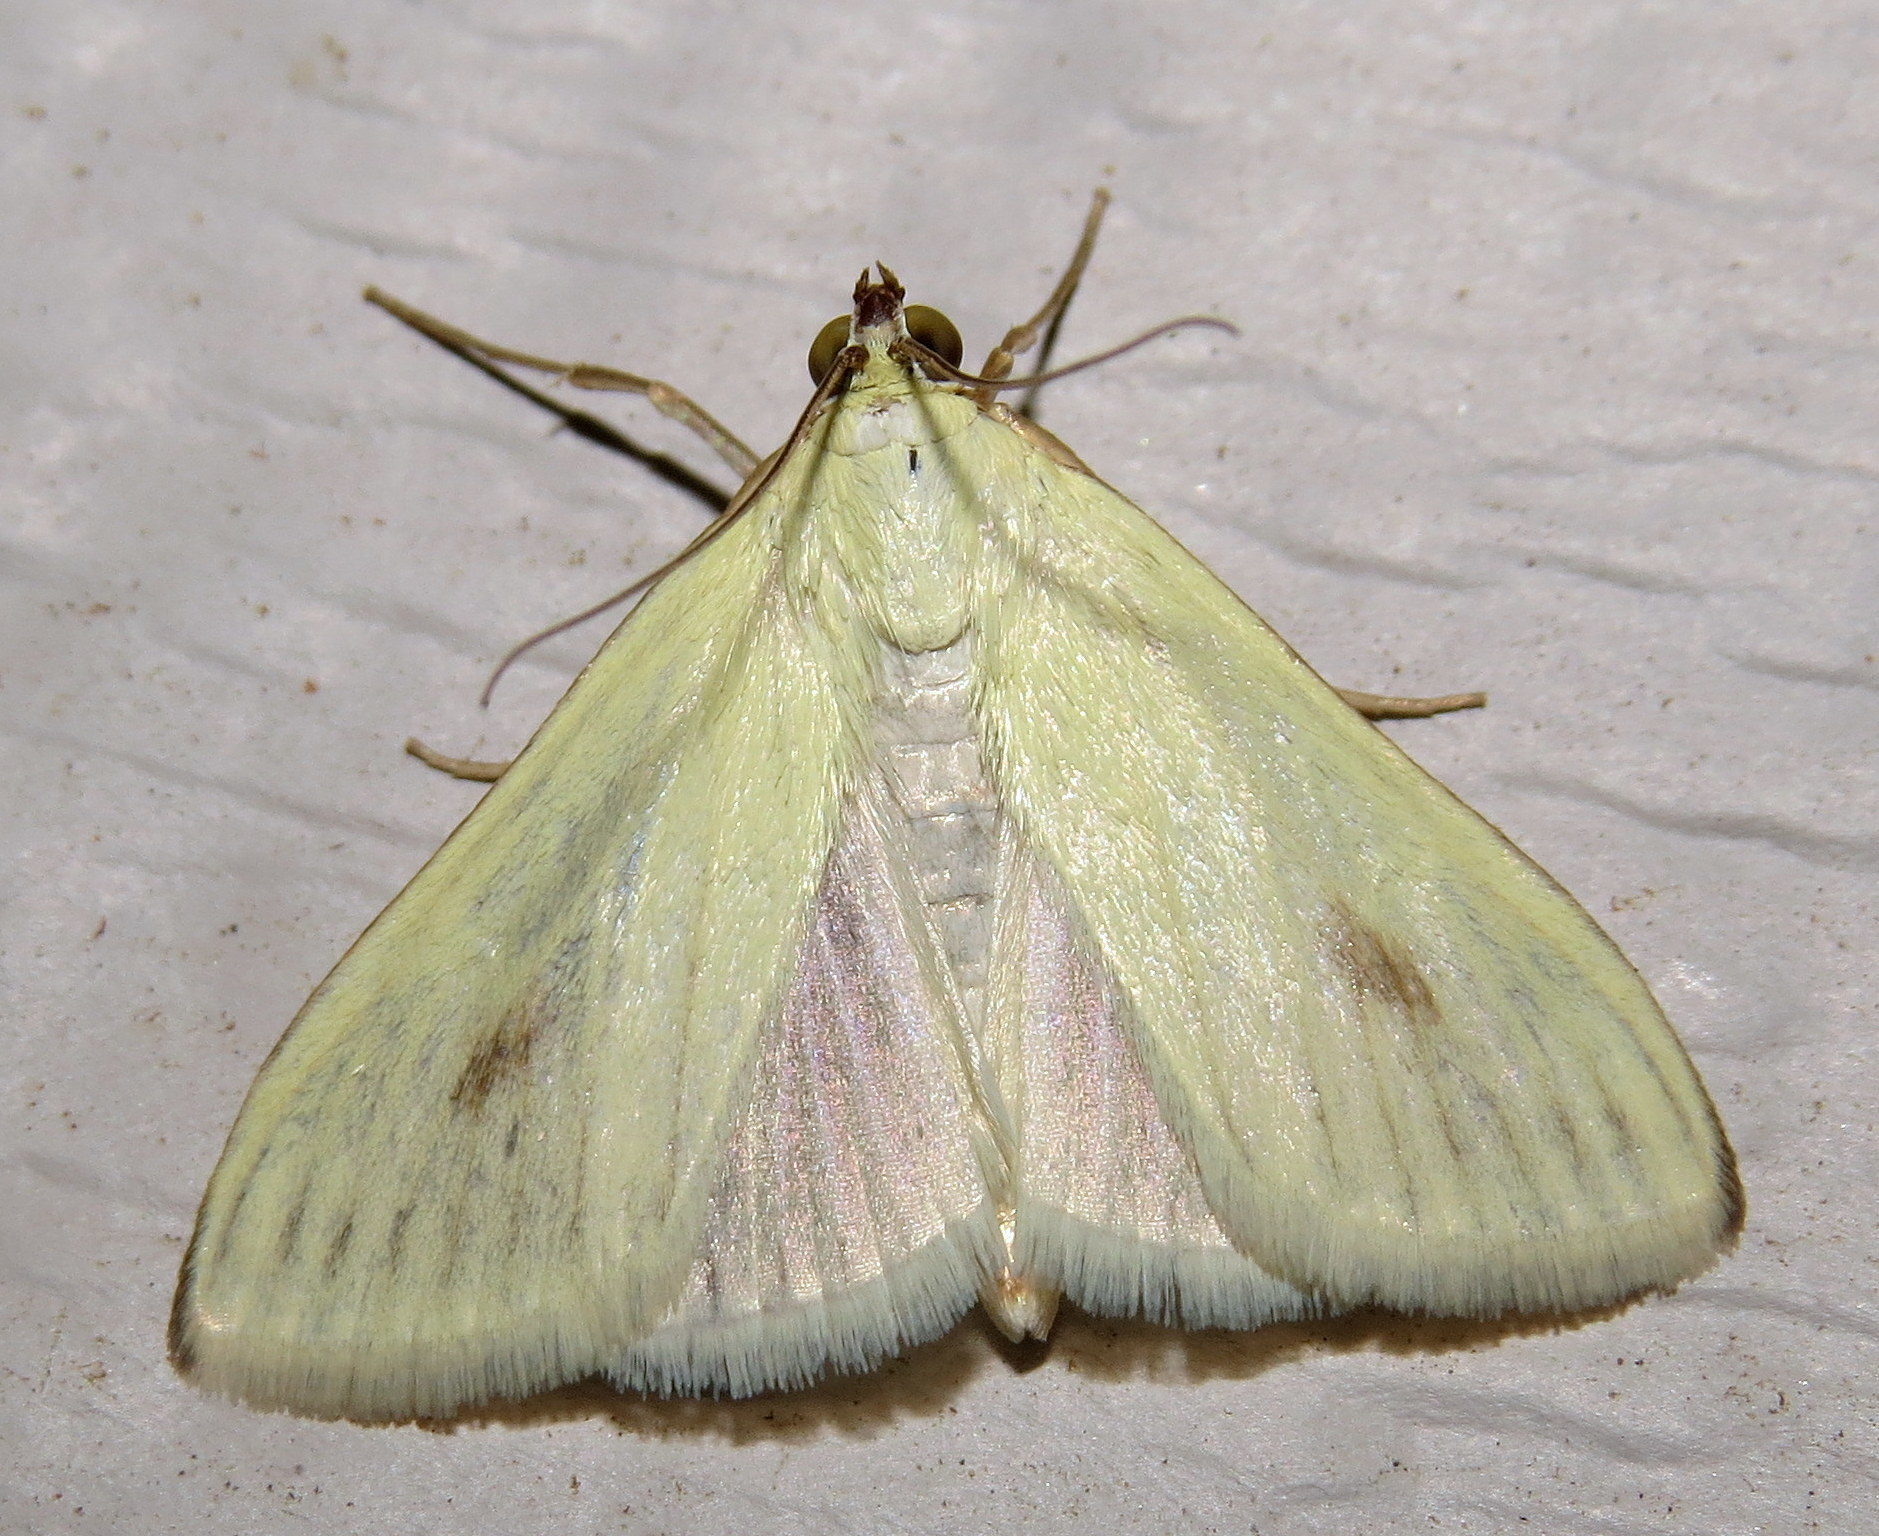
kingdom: Animalia
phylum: Arthropoda
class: Insecta
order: Lepidoptera
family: Crambidae
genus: Sitochroa
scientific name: Sitochroa palealis
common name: Greenish-yellow sitochroa moth
